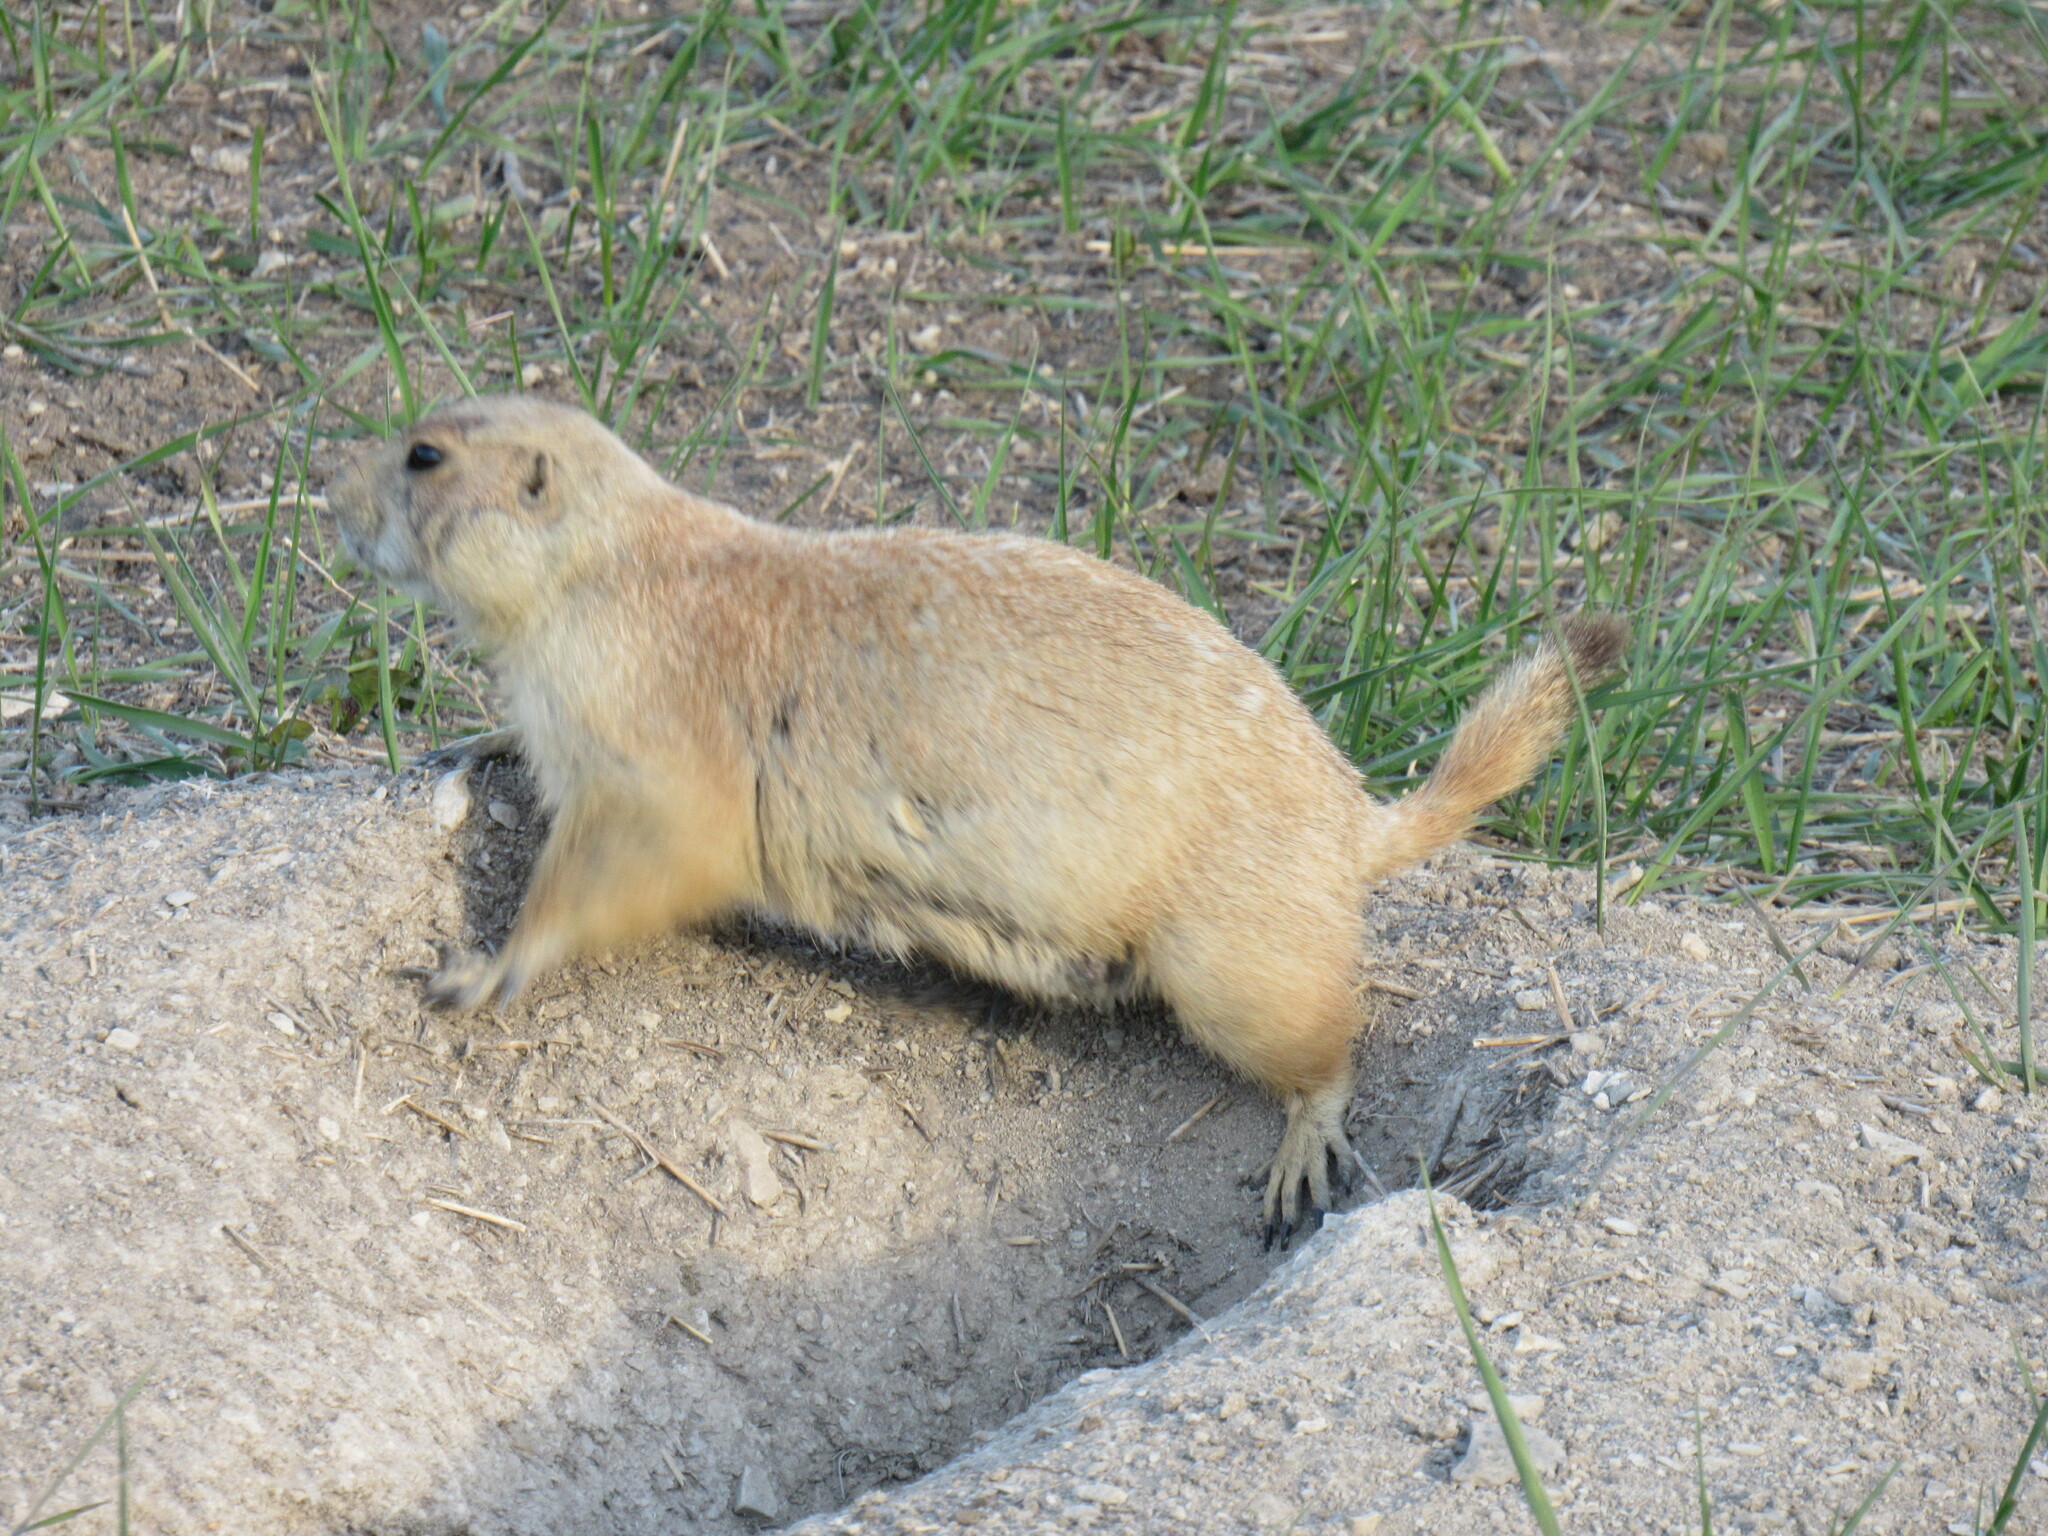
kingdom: Animalia
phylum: Chordata
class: Mammalia
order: Rodentia
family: Sciuridae
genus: Cynomys
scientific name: Cynomys ludovicianus
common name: Black-tailed prairie dog
